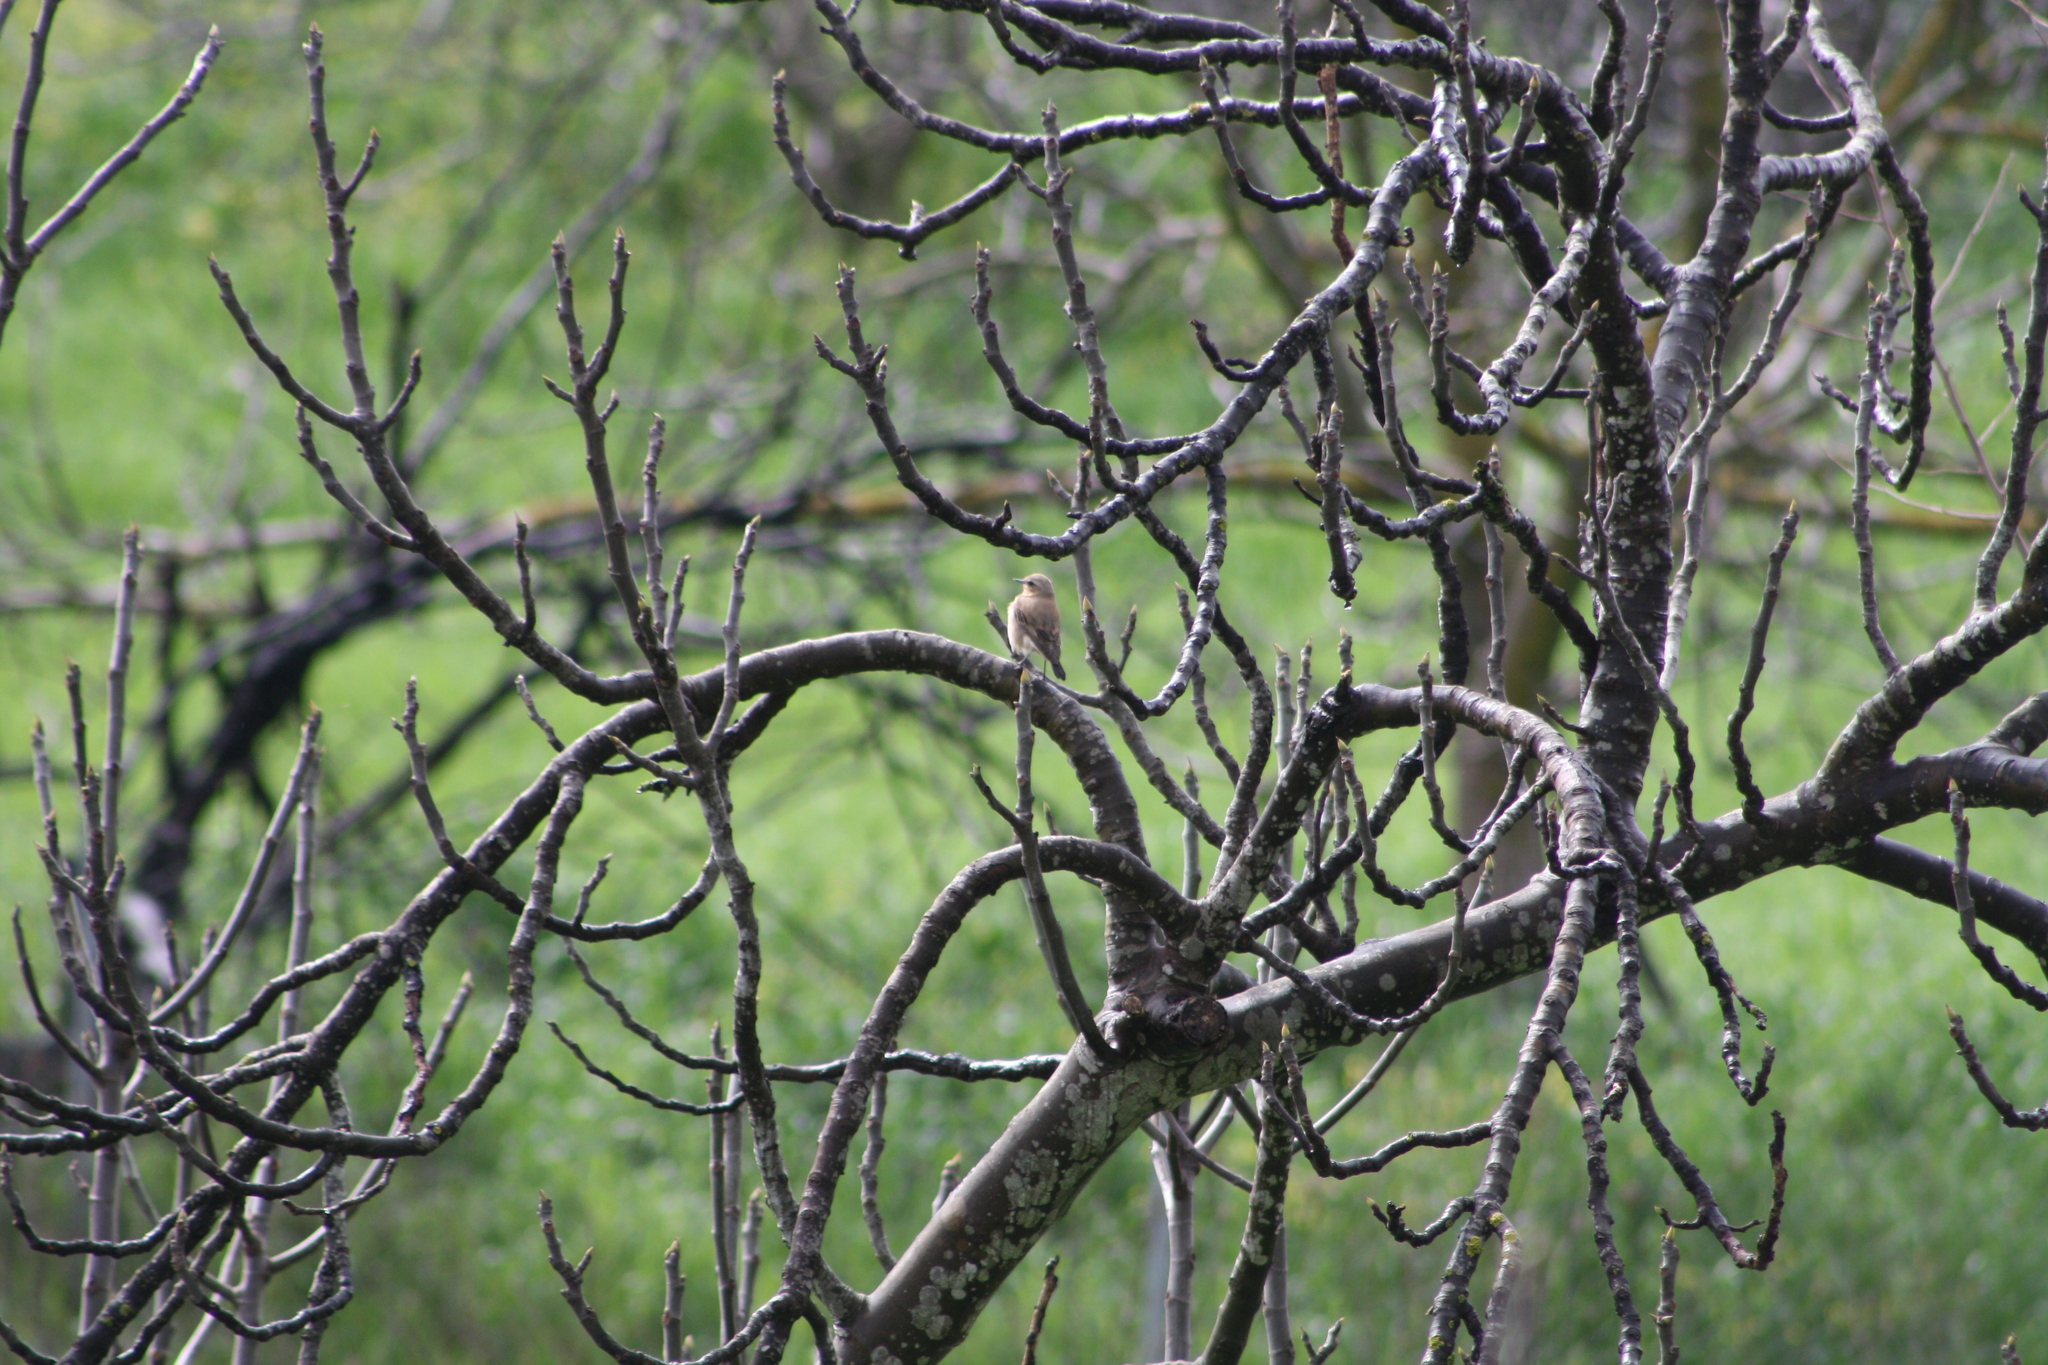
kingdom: Animalia
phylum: Chordata
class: Aves
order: Passeriformes
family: Muscicapidae
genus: Oenanthe
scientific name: Oenanthe oenanthe
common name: Northern wheatear
